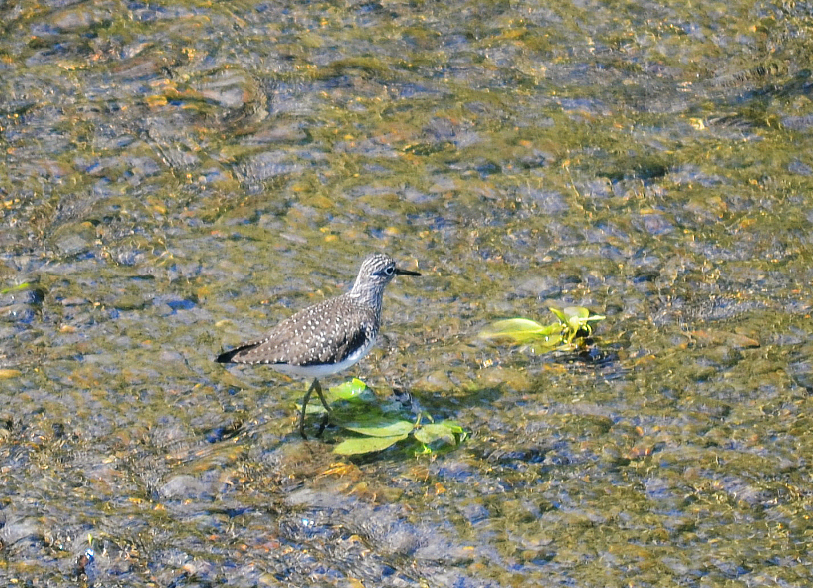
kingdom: Animalia
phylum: Chordata
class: Aves
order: Charadriiformes
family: Scolopacidae
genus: Tringa
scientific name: Tringa solitaria
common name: Solitary sandpiper
